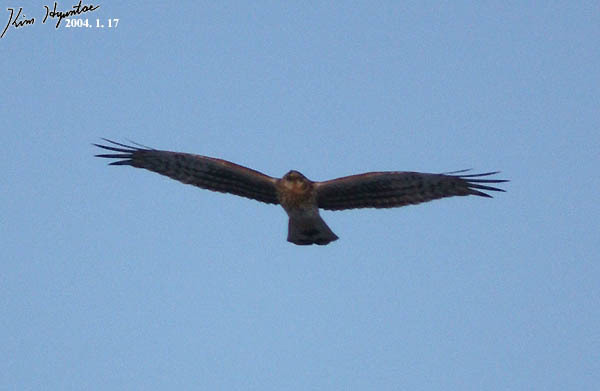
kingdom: Animalia
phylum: Chordata
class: Aves
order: Accipitriformes
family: Accipitridae
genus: Circus
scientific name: Circus cyaneus
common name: Hen harrier
